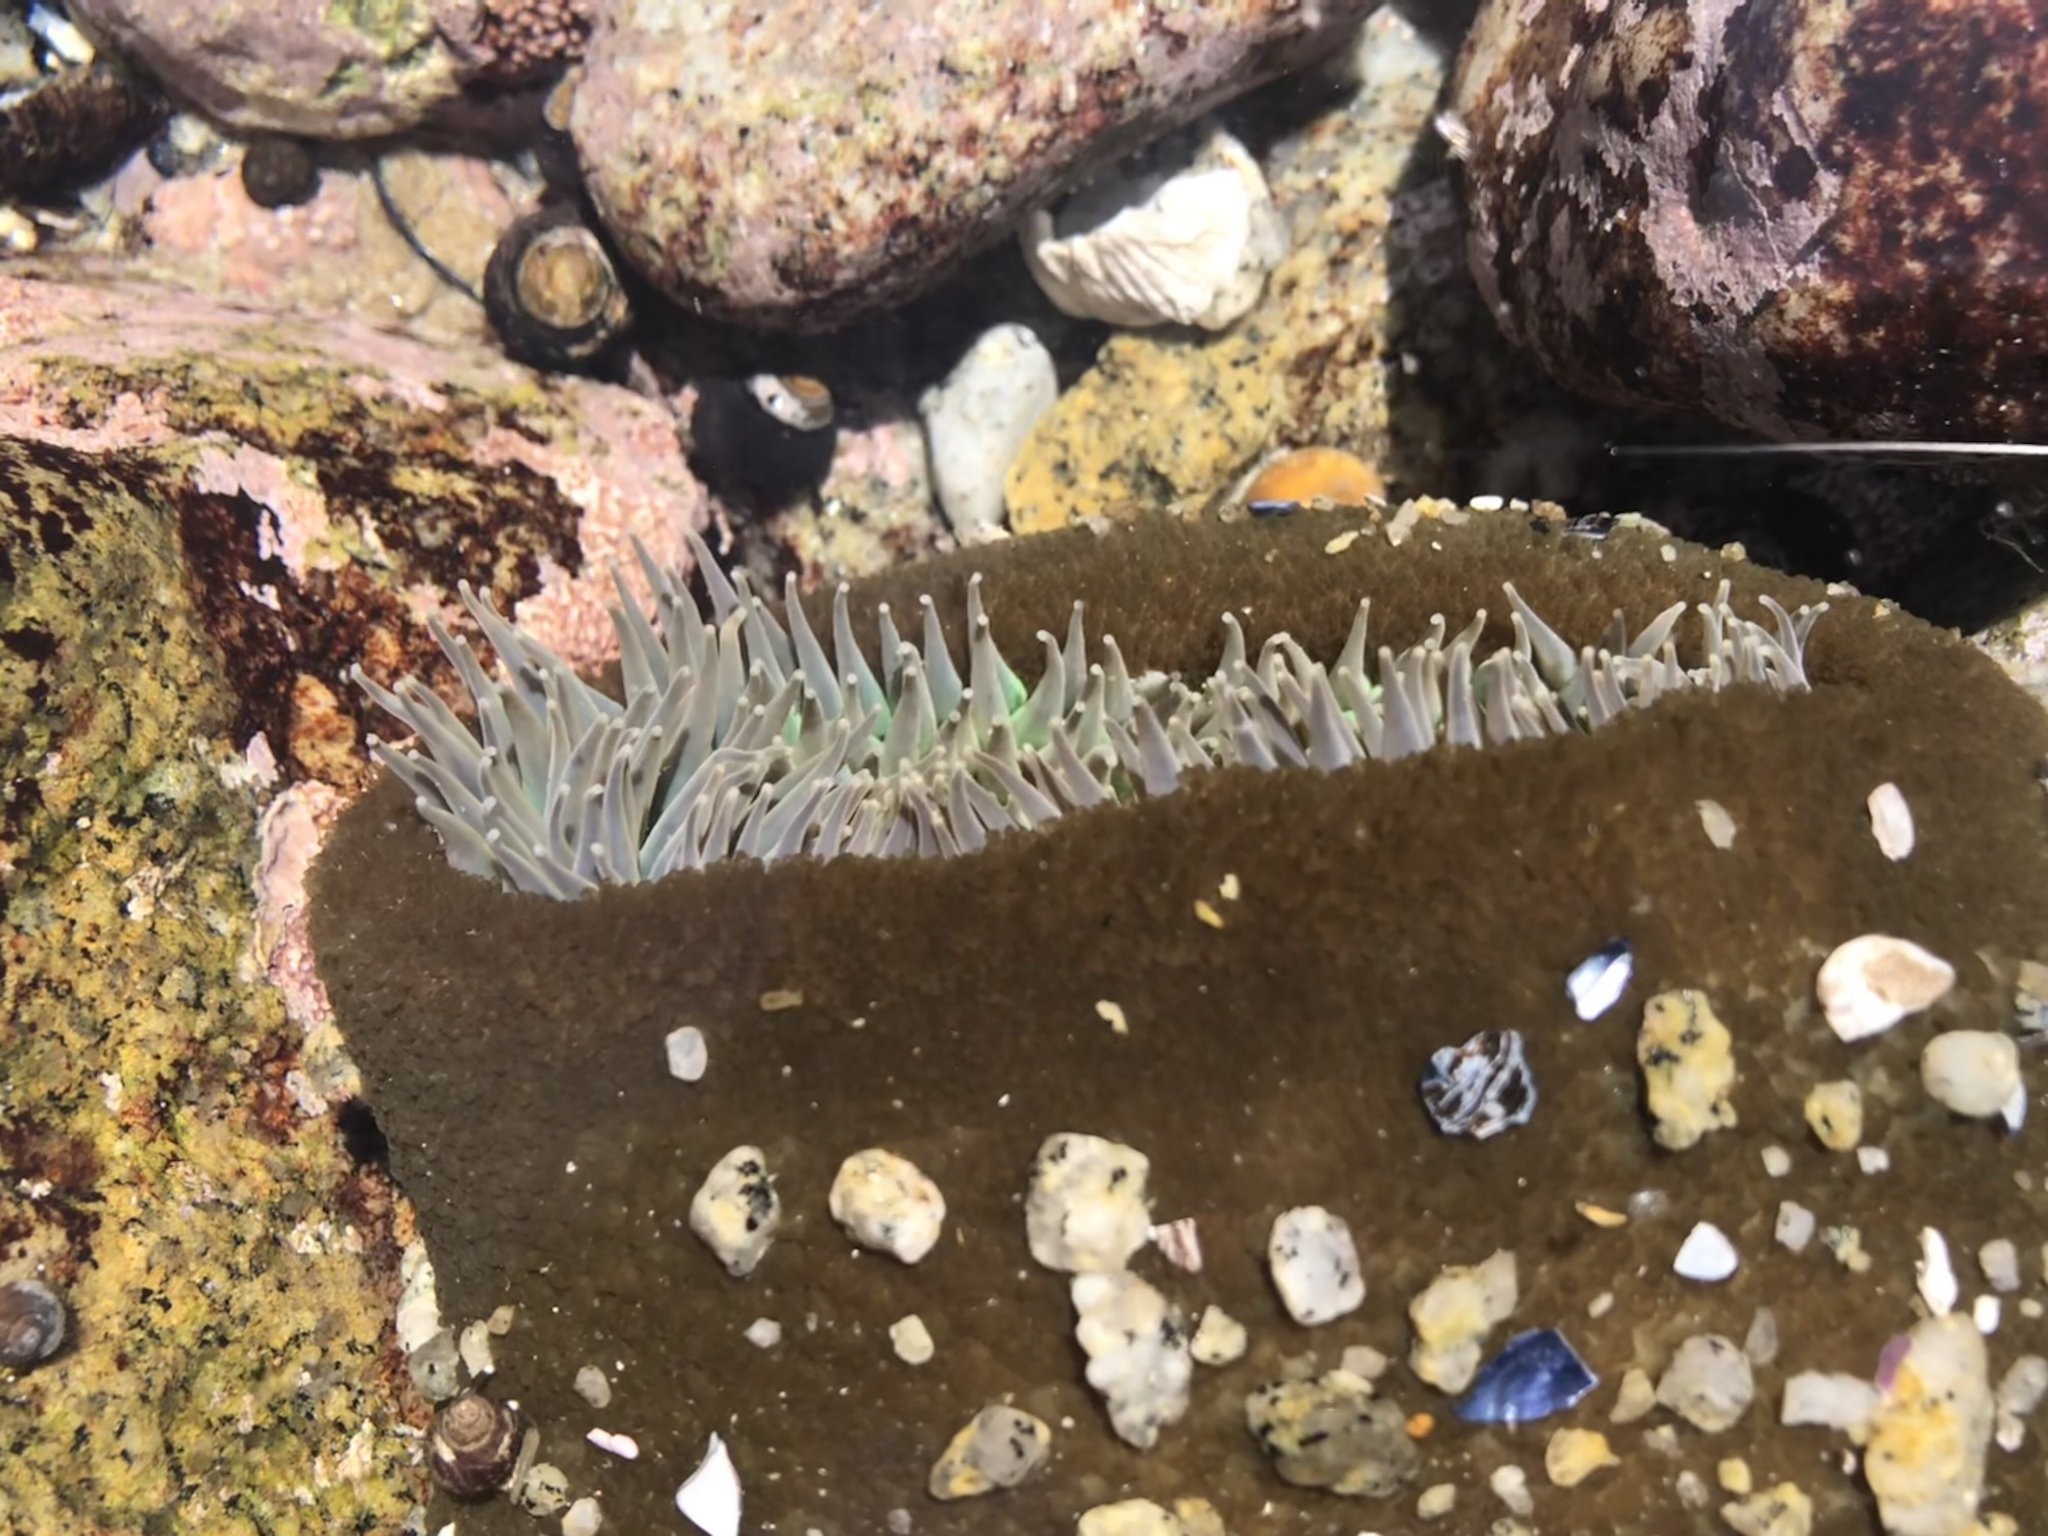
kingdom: Animalia
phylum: Cnidaria
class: Anthozoa
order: Actiniaria
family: Actiniidae
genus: Anthopleura
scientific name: Anthopleura xanthogrammica
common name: Giant green anemone
